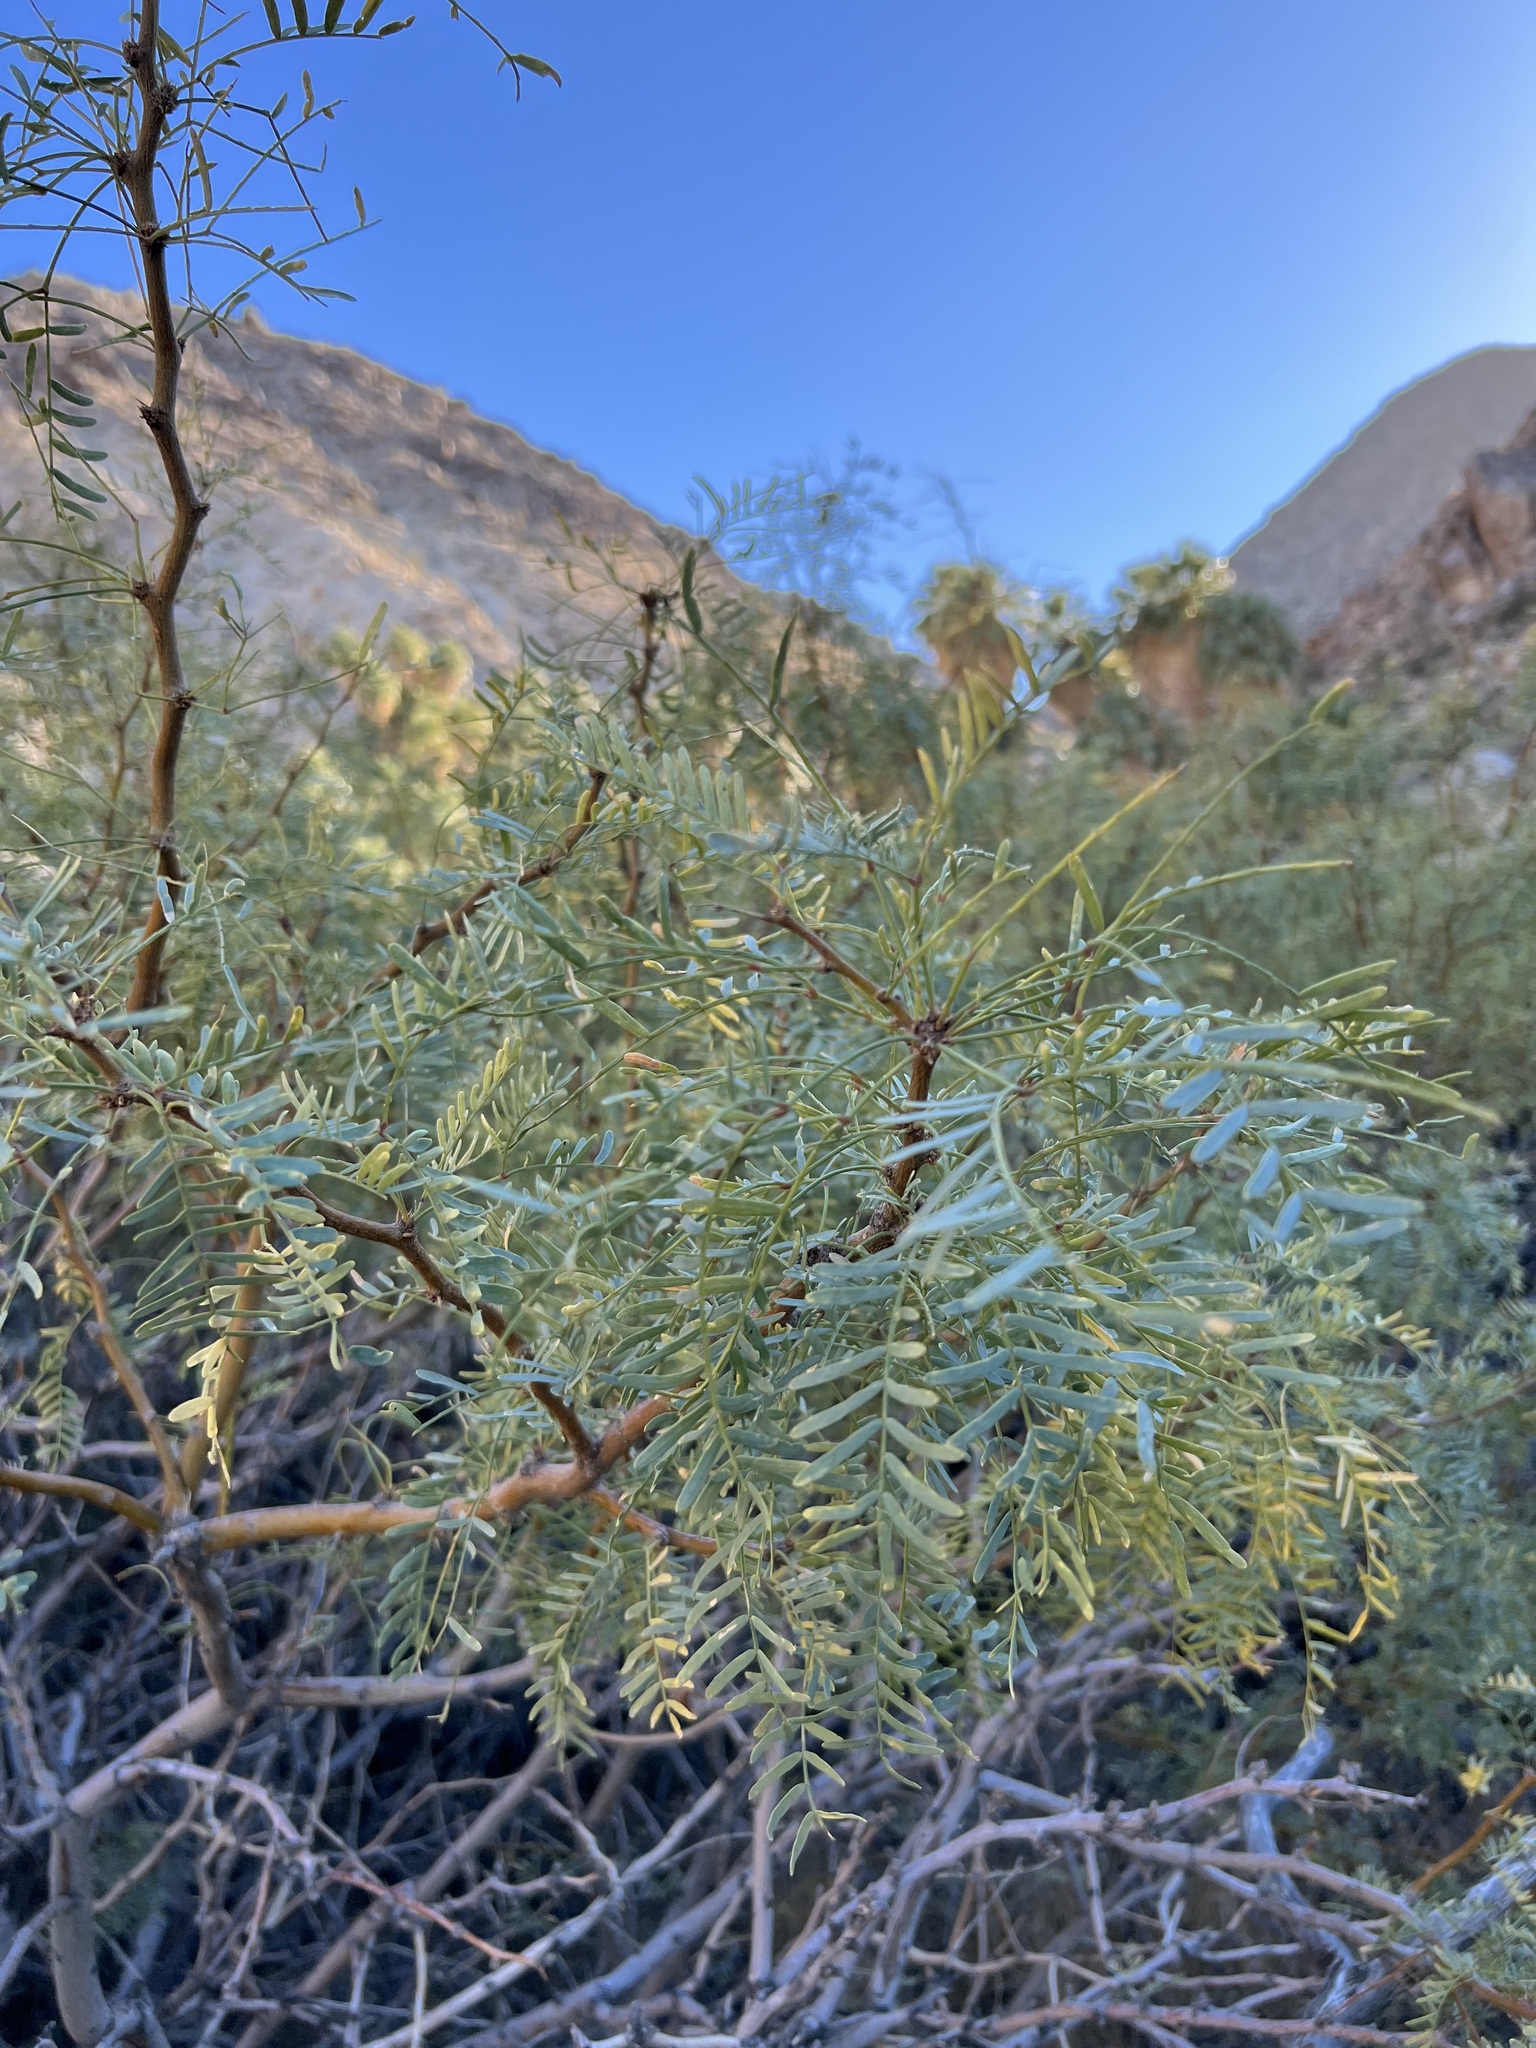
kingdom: Plantae
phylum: Tracheophyta
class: Magnoliopsida
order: Fabales
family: Fabaceae
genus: Prosopis
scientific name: Prosopis pubescens
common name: Screw-bean
